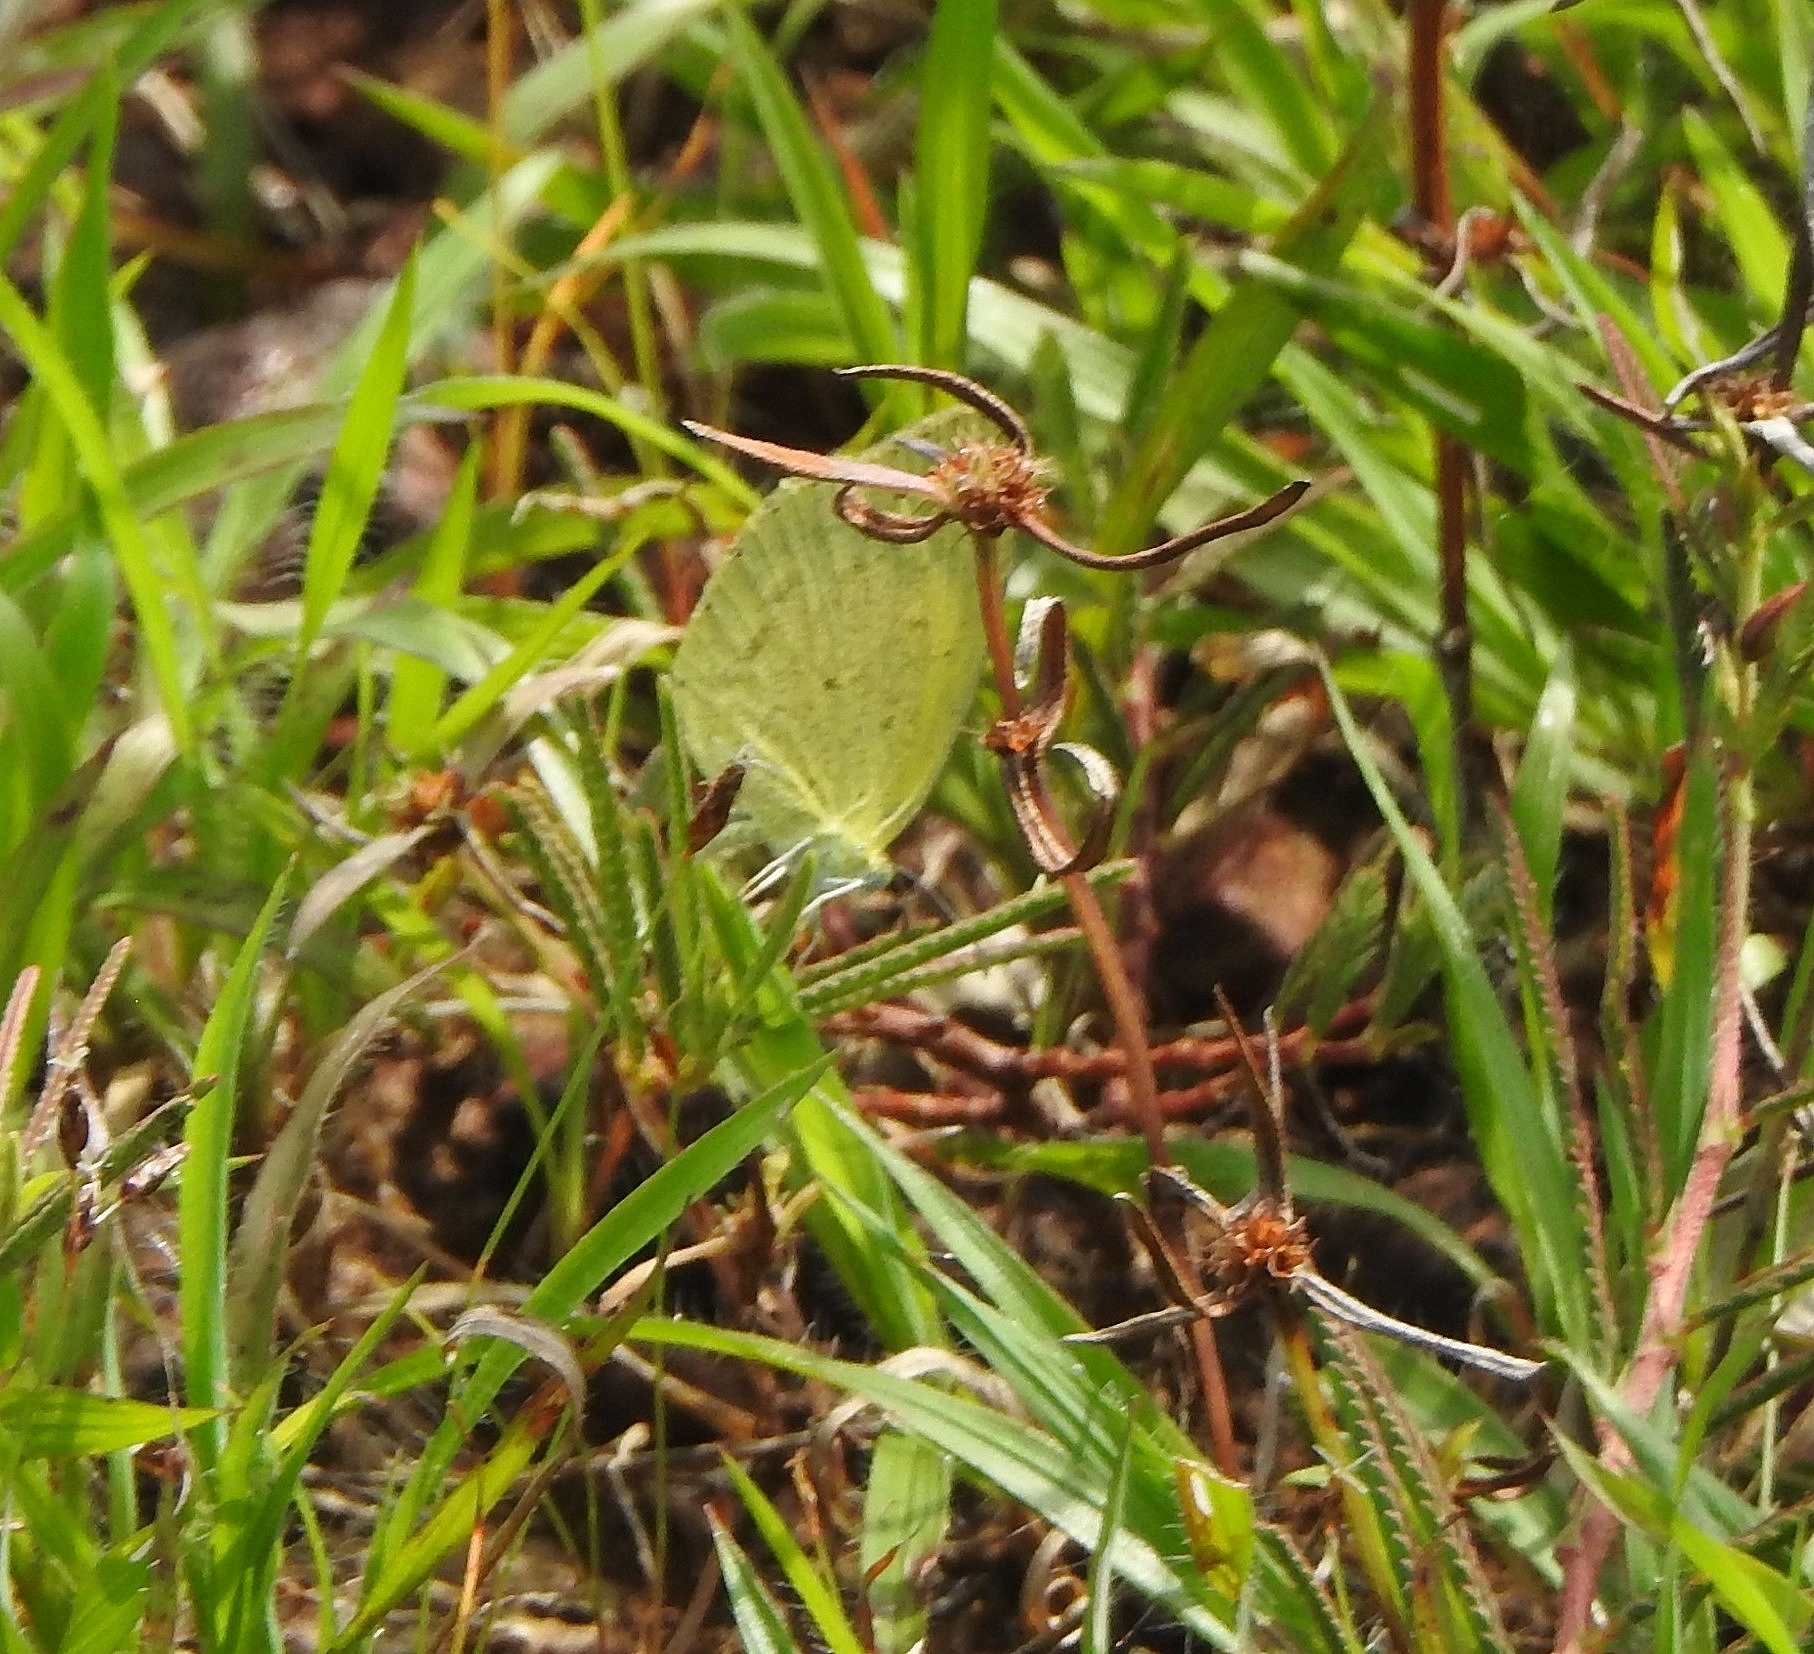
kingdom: Animalia
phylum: Arthropoda
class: Insecta
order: Lepidoptera
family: Pieridae
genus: Eurema
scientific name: Eurema brigitta
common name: Small grass yellow
